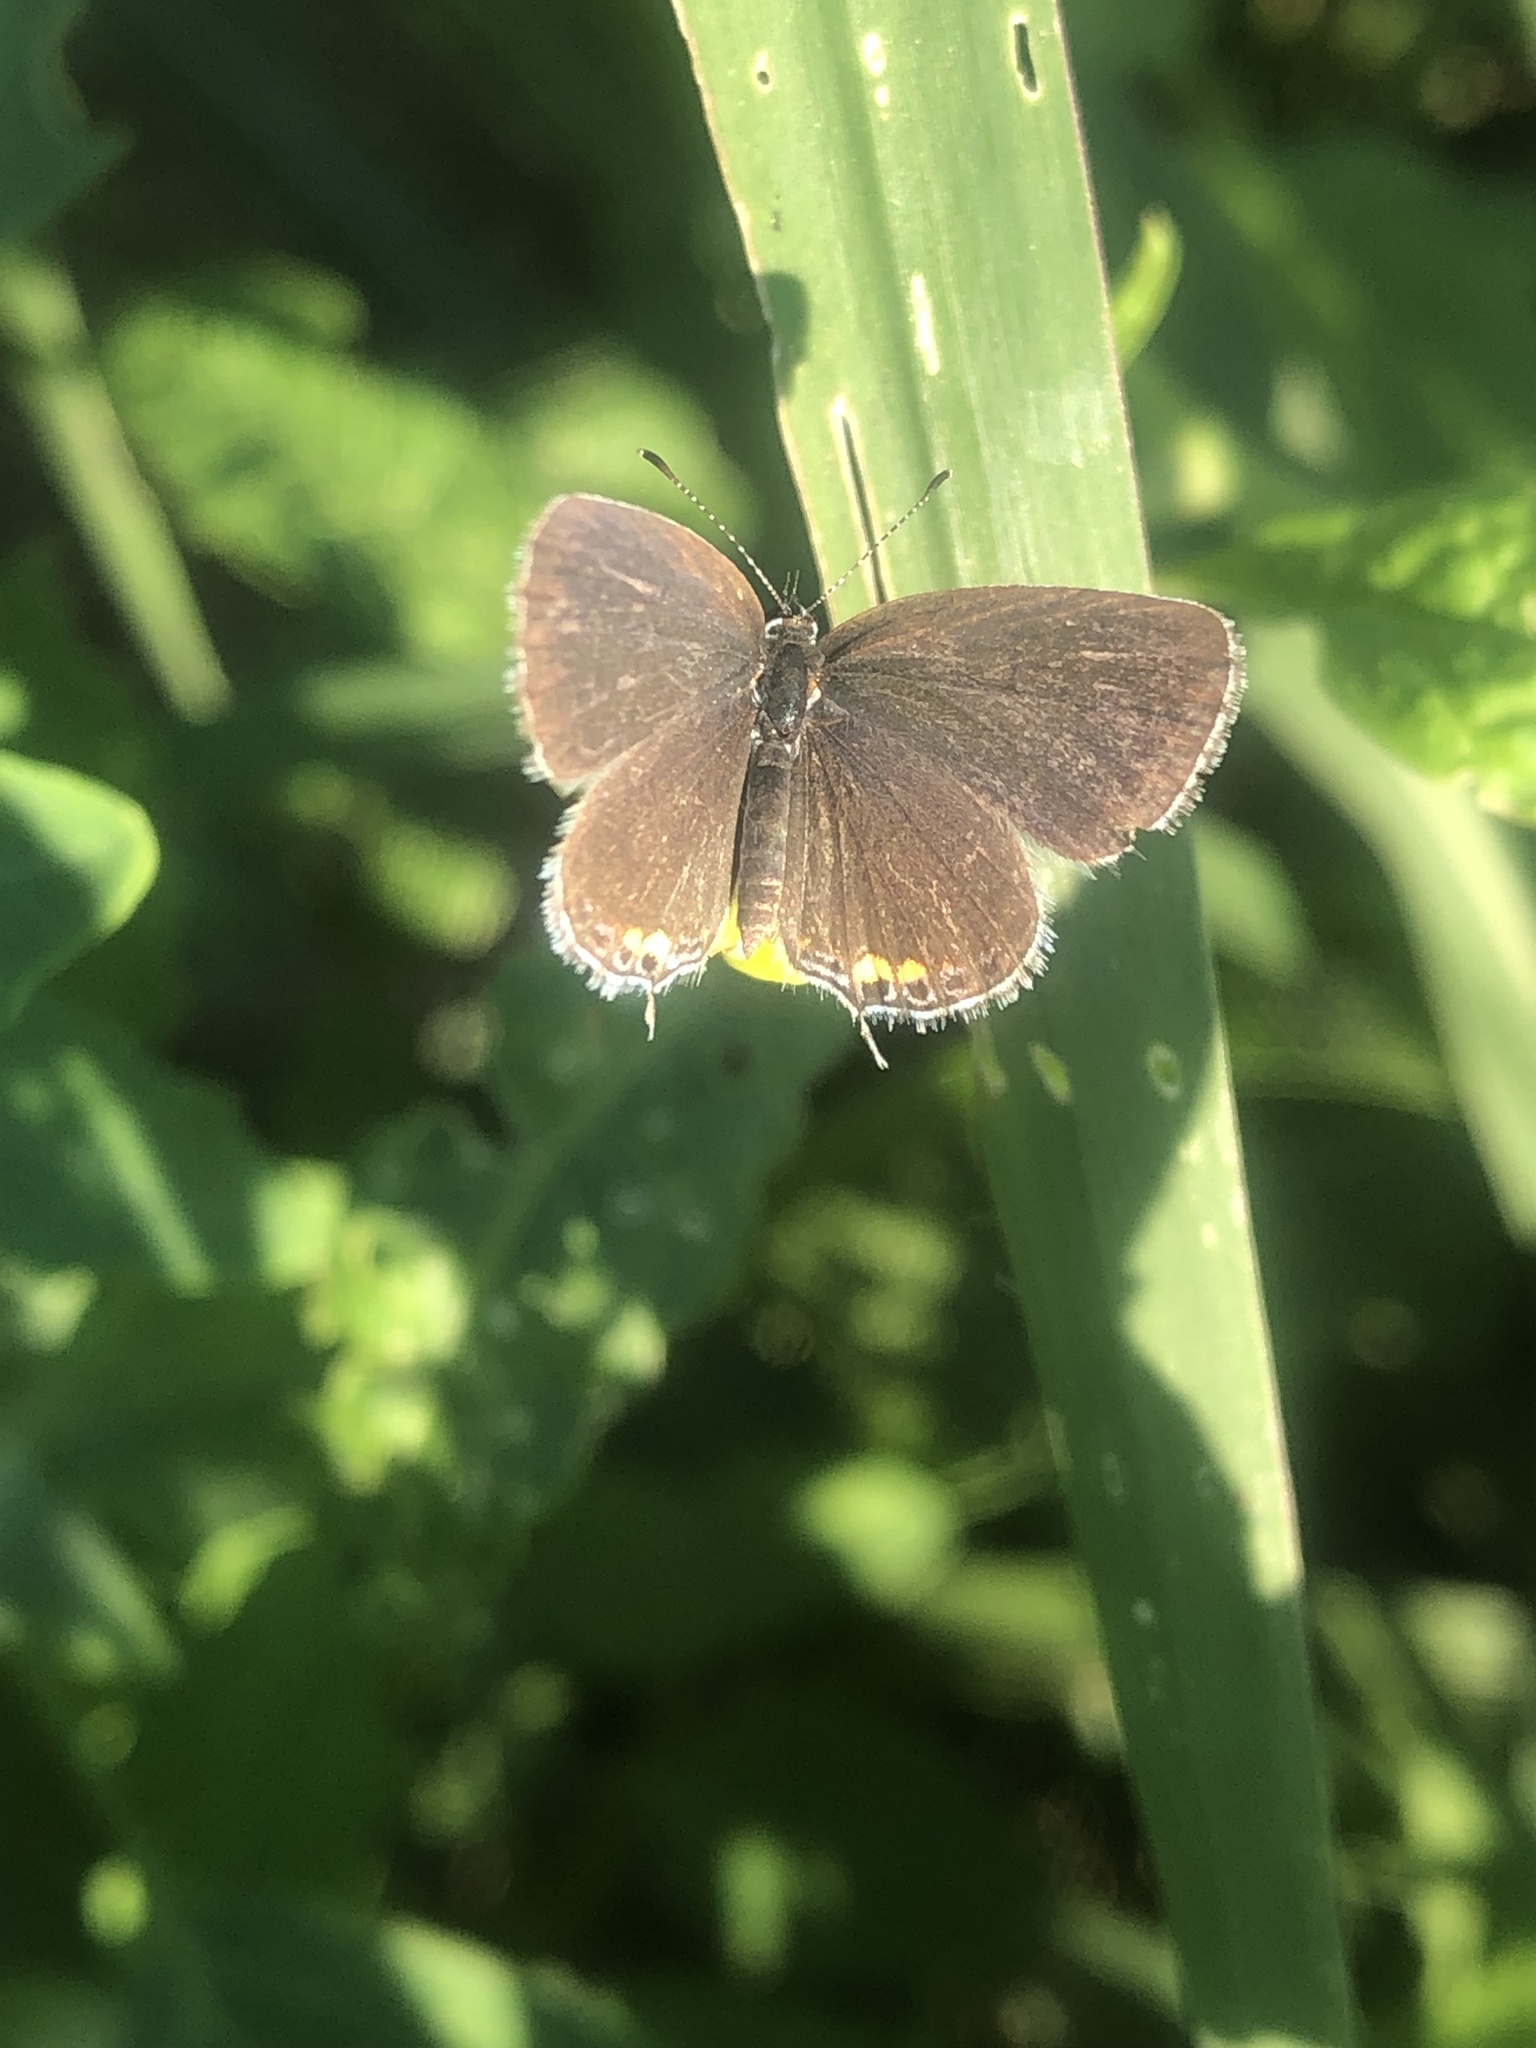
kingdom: Animalia
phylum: Arthropoda
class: Insecta
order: Lepidoptera
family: Lycaenidae
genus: Elkalyce
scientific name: Elkalyce comyntas
